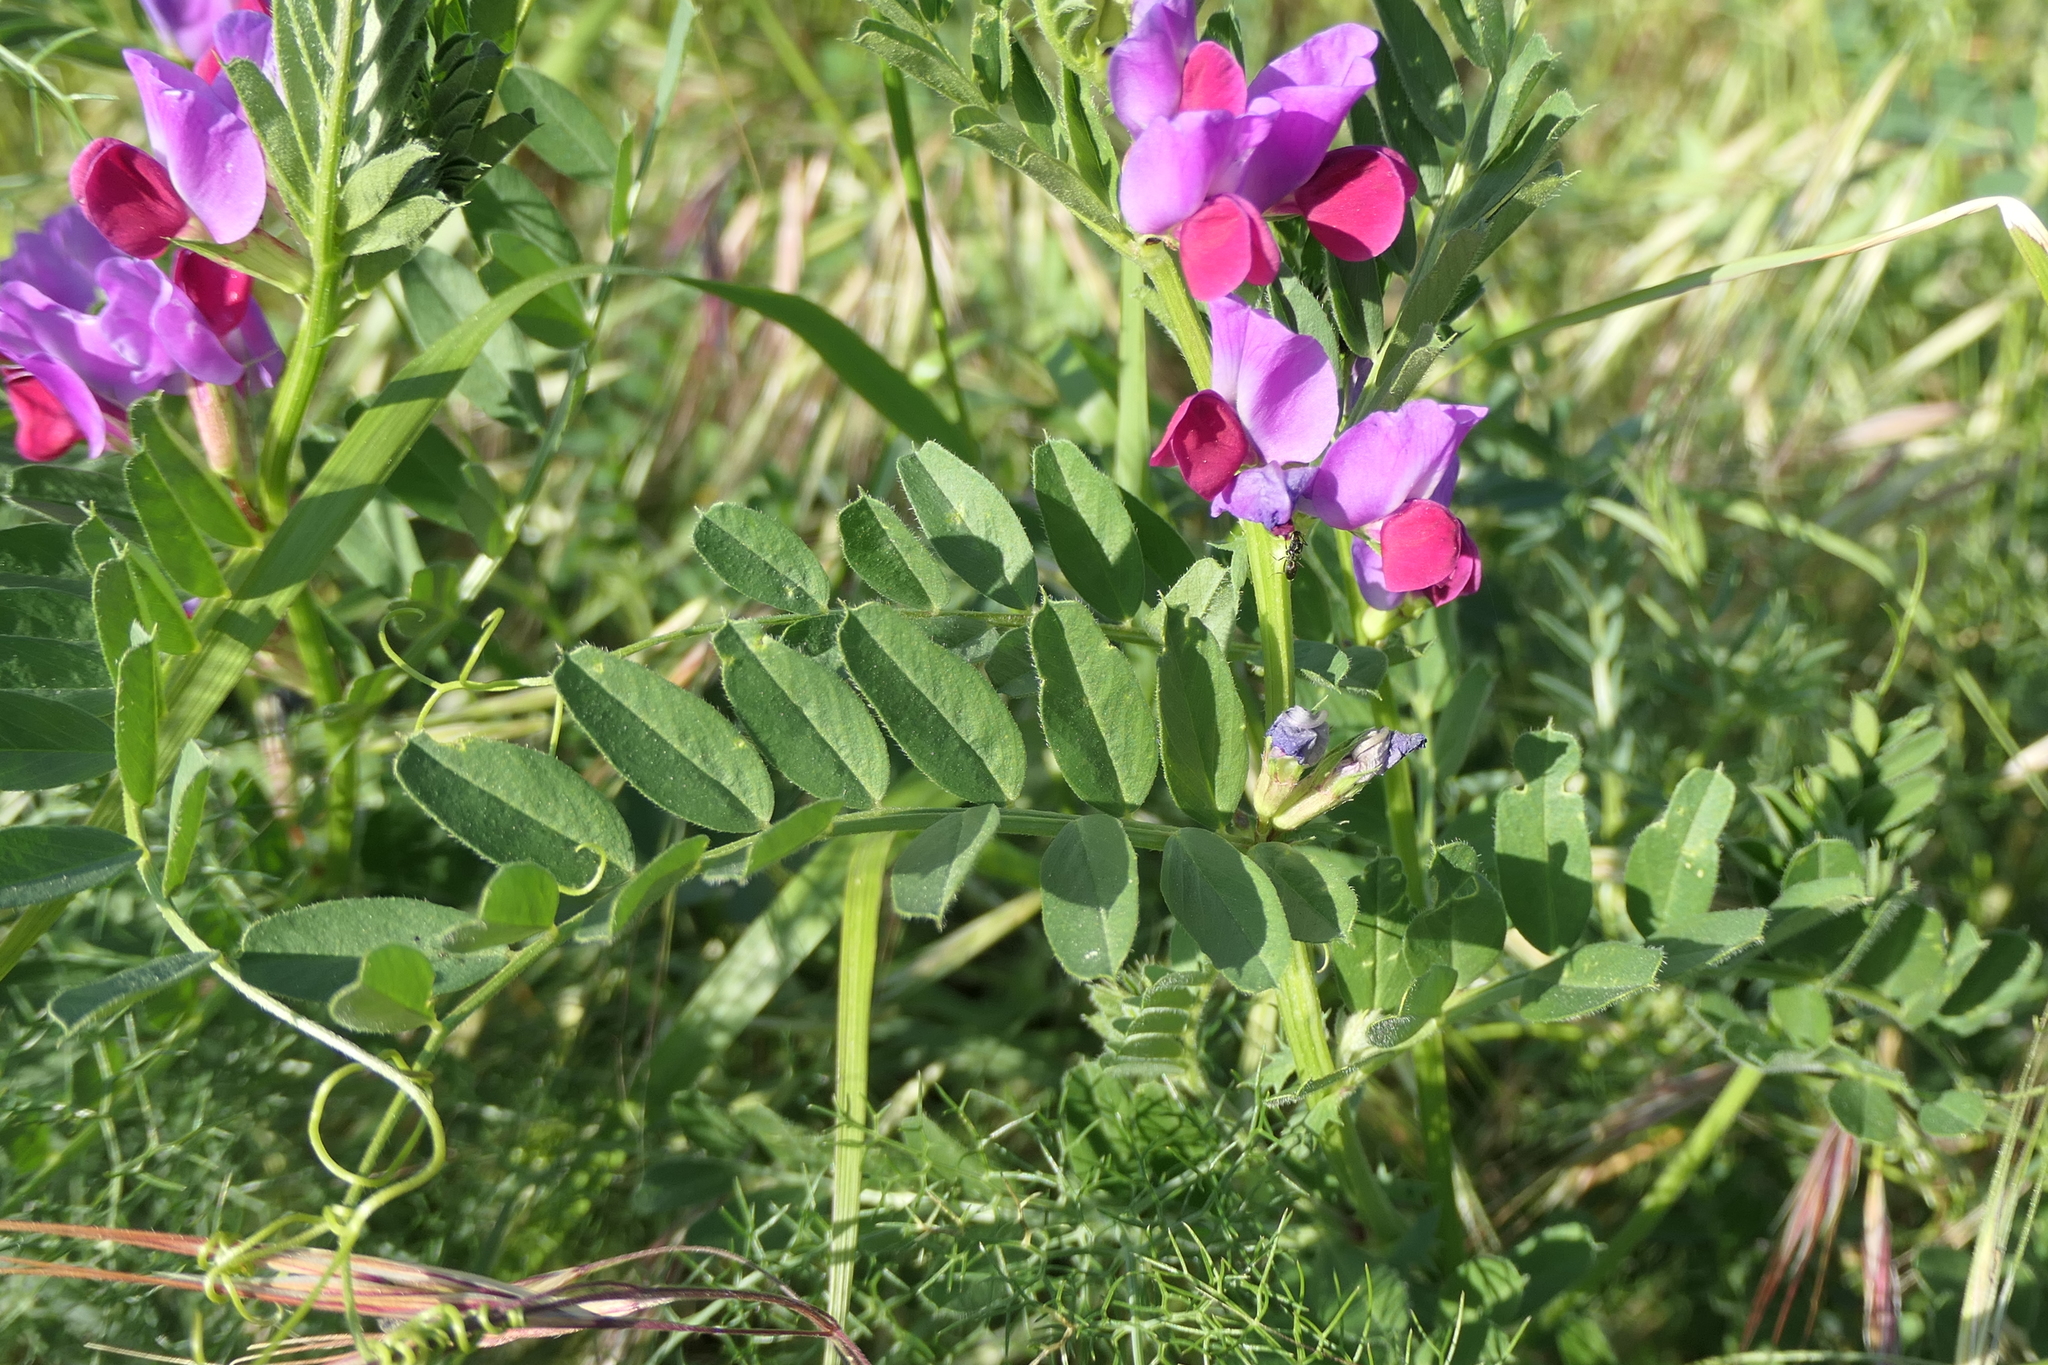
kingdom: Plantae
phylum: Tracheophyta
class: Magnoliopsida
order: Fabales
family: Fabaceae
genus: Vicia
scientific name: Vicia sativa
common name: Garden vetch
